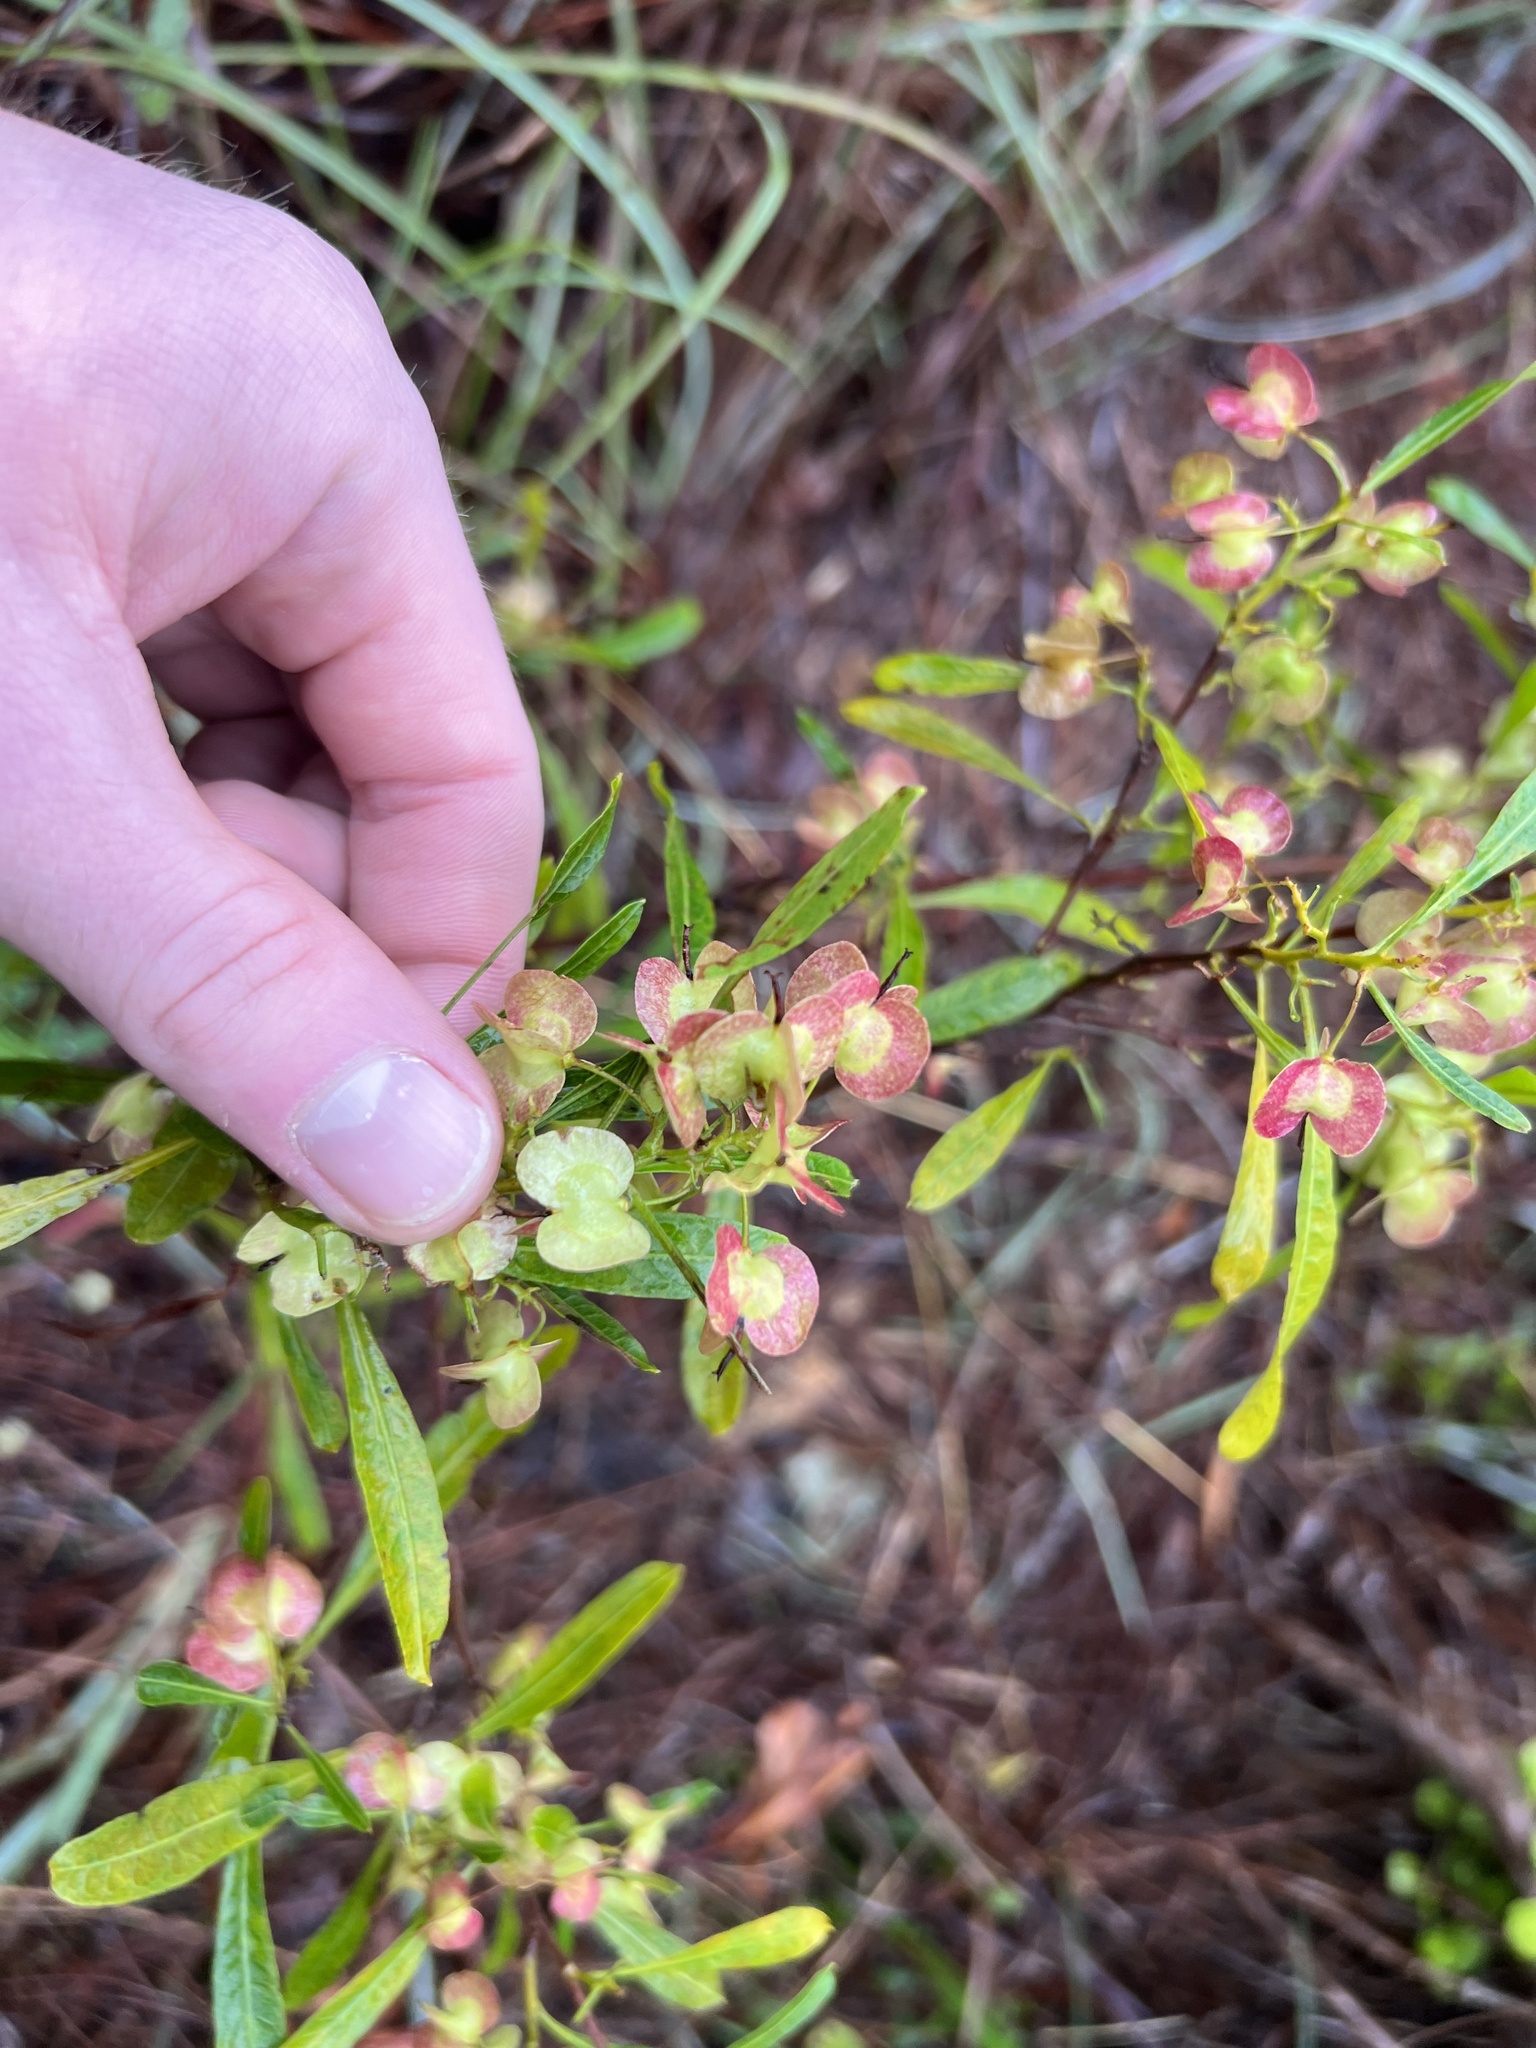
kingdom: Plantae
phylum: Tracheophyta
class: Magnoliopsida
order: Sapindales
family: Sapindaceae
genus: Dodonaea
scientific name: Dodonaea viscosa
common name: Hopbush
